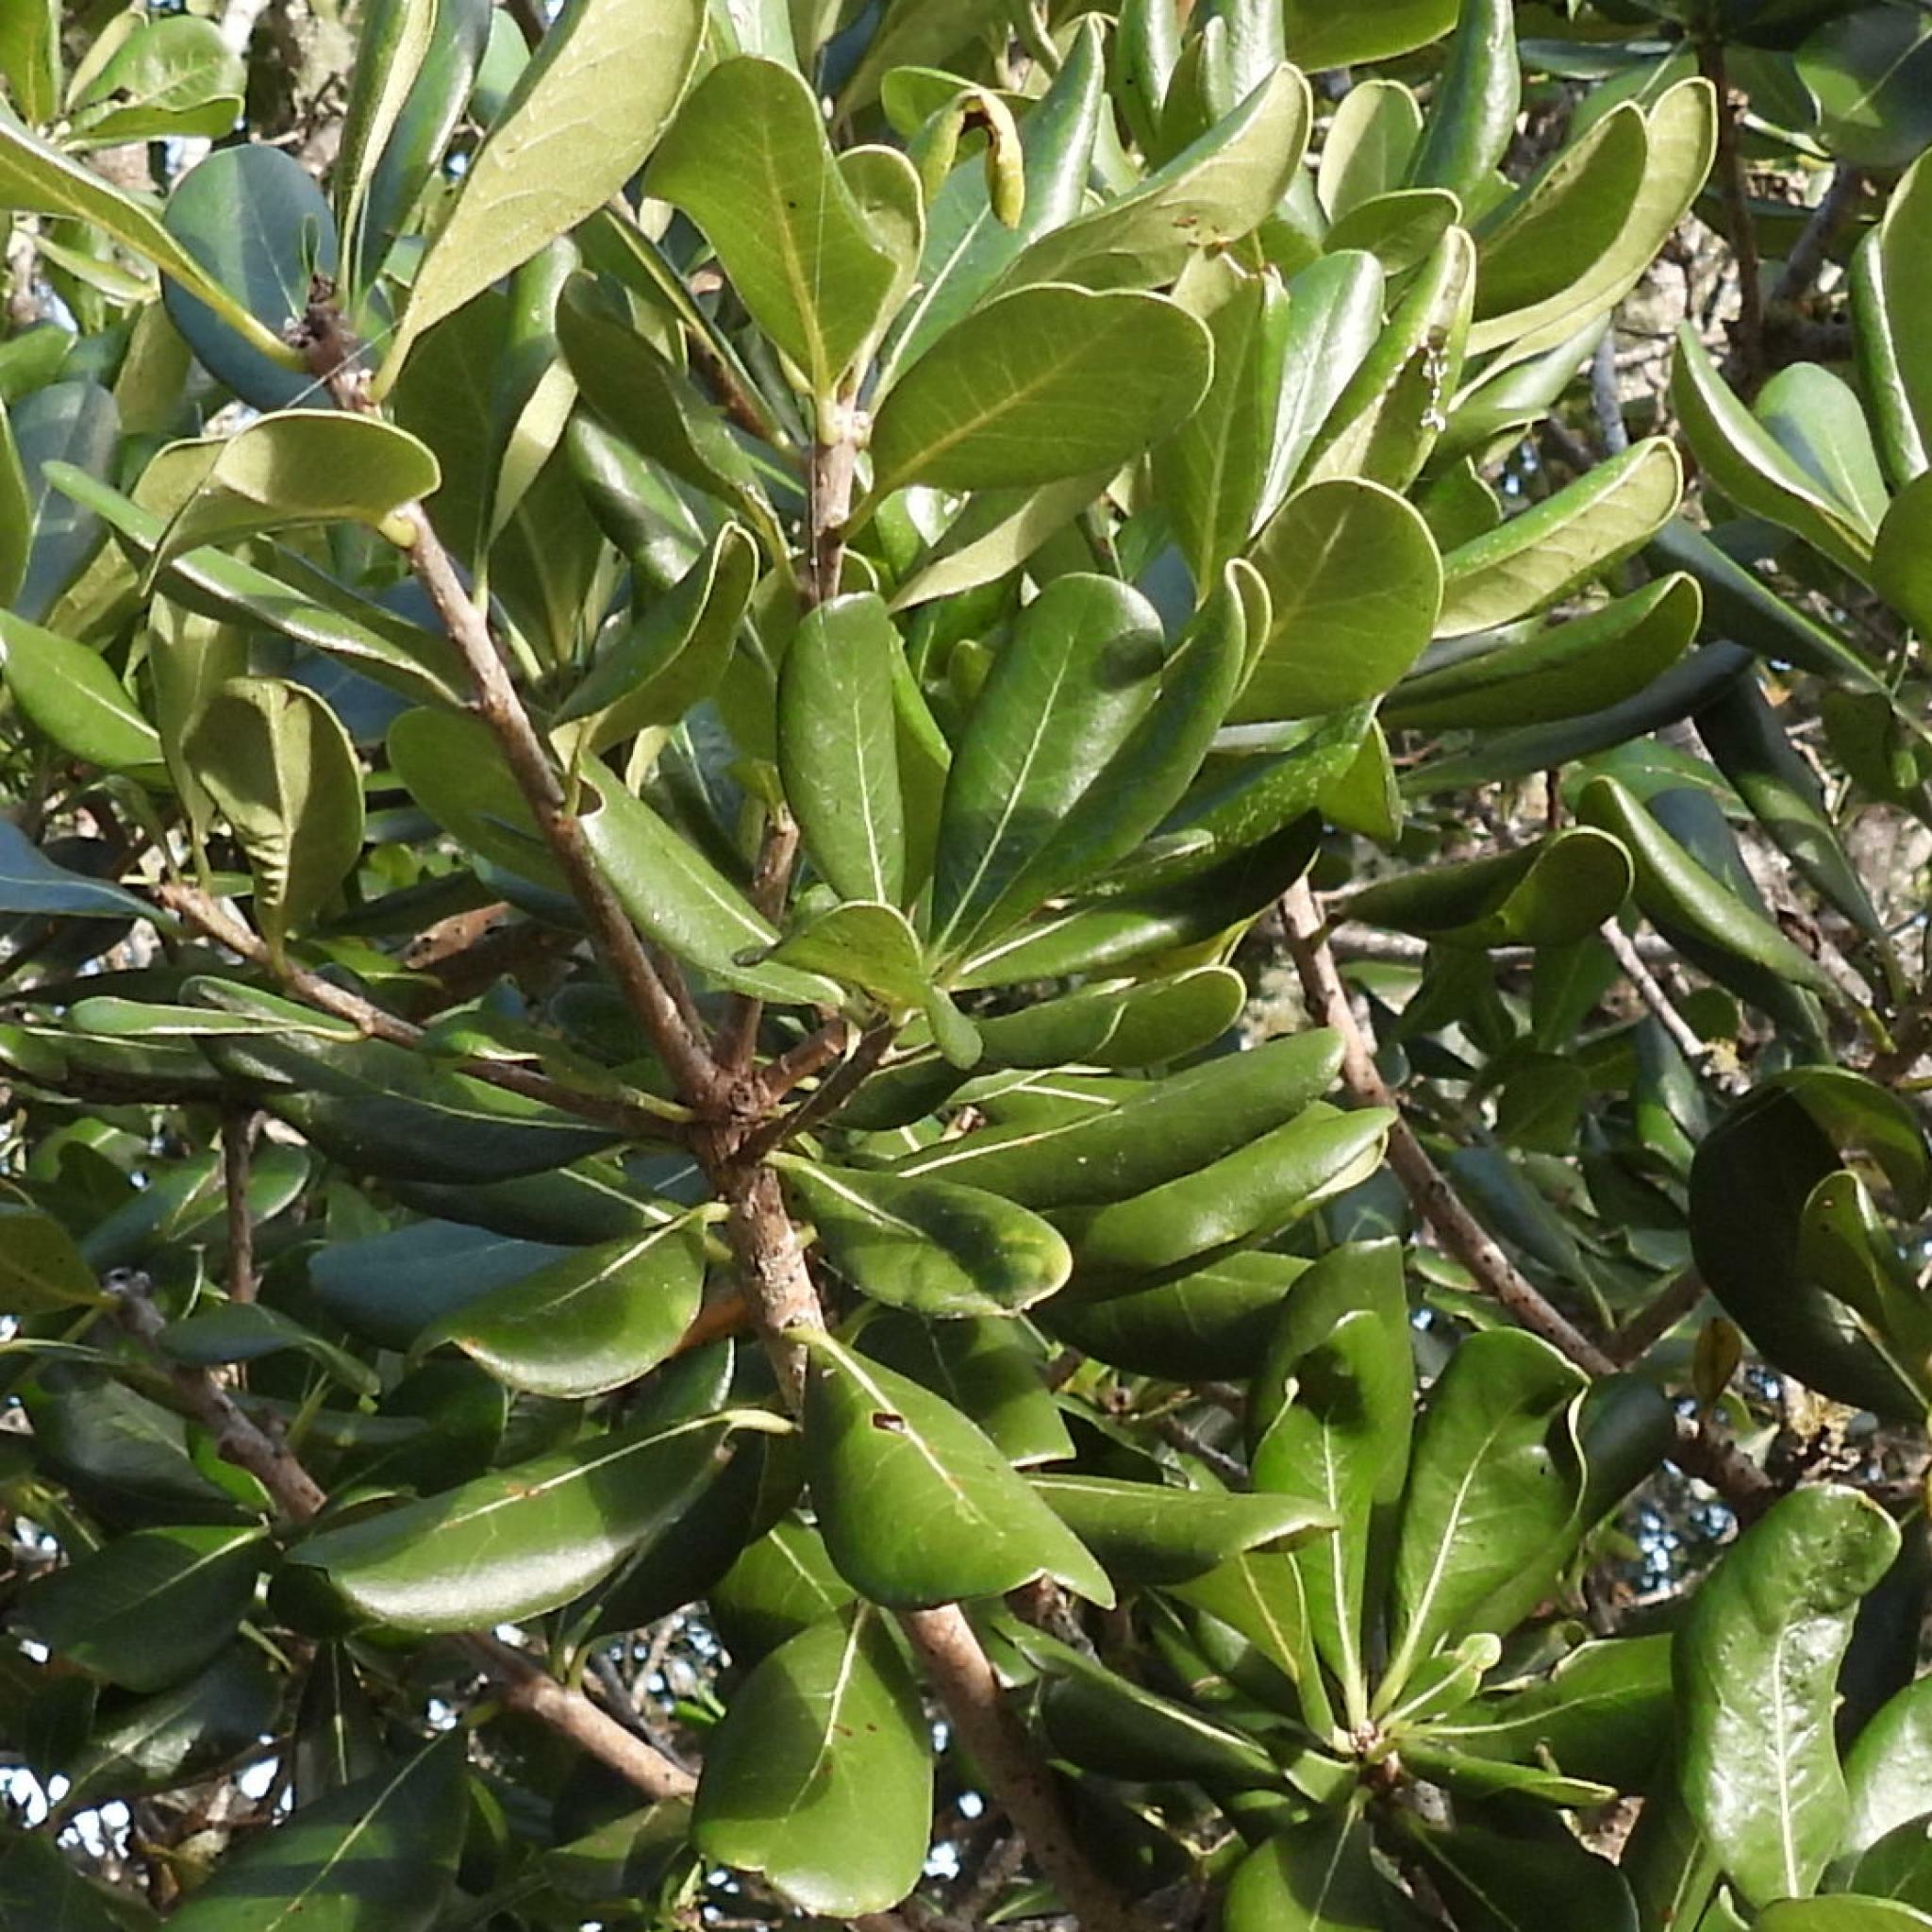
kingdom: Plantae
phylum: Tracheophyta
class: Magnoliopsida
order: Apiales
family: Pittosporaceae
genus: Pittosporum
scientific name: Pittosporum viridiflorum
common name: Cape cheesewood
